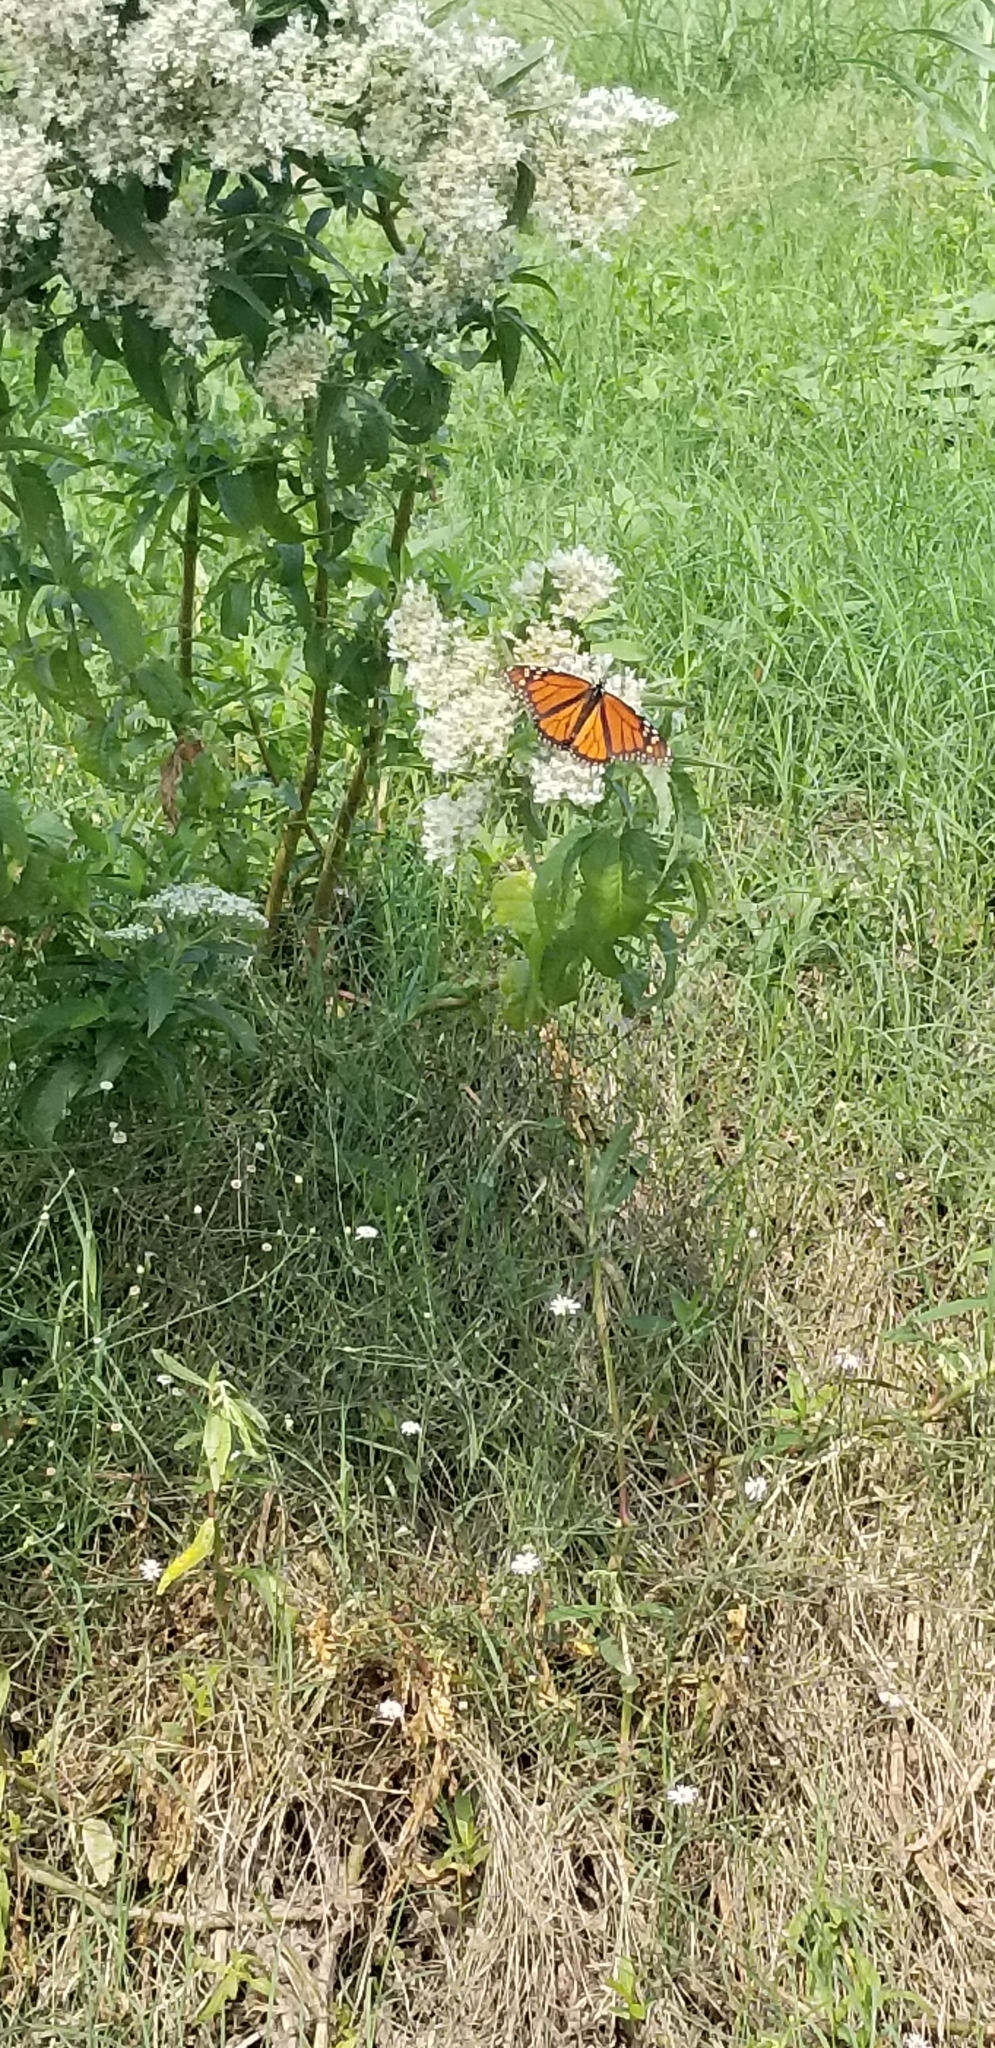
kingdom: Animalia
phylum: Arthropoda
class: Insecta
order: Lepidoptera
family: Nymphalidae
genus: Danaus
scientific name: Danaus plexippus
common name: Monarch
